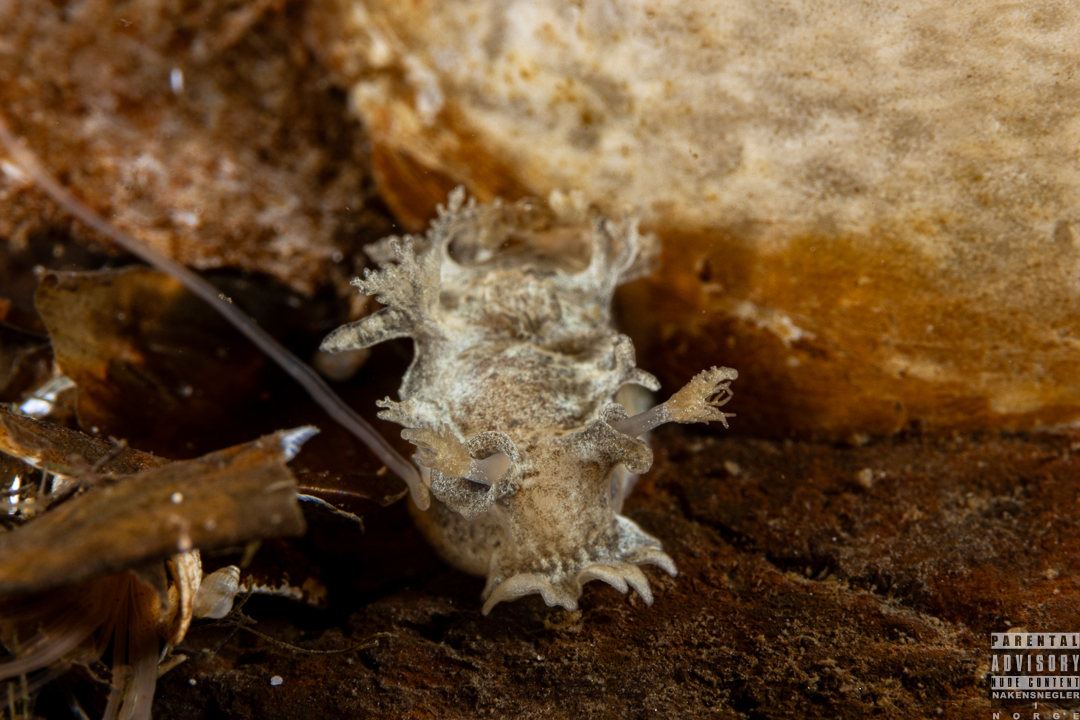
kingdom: Animalia
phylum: Mollusca
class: Gastropoda
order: Nudibranchia
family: Tritoniidae
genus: Duvaucelia
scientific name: Duvaucelia plebeia
